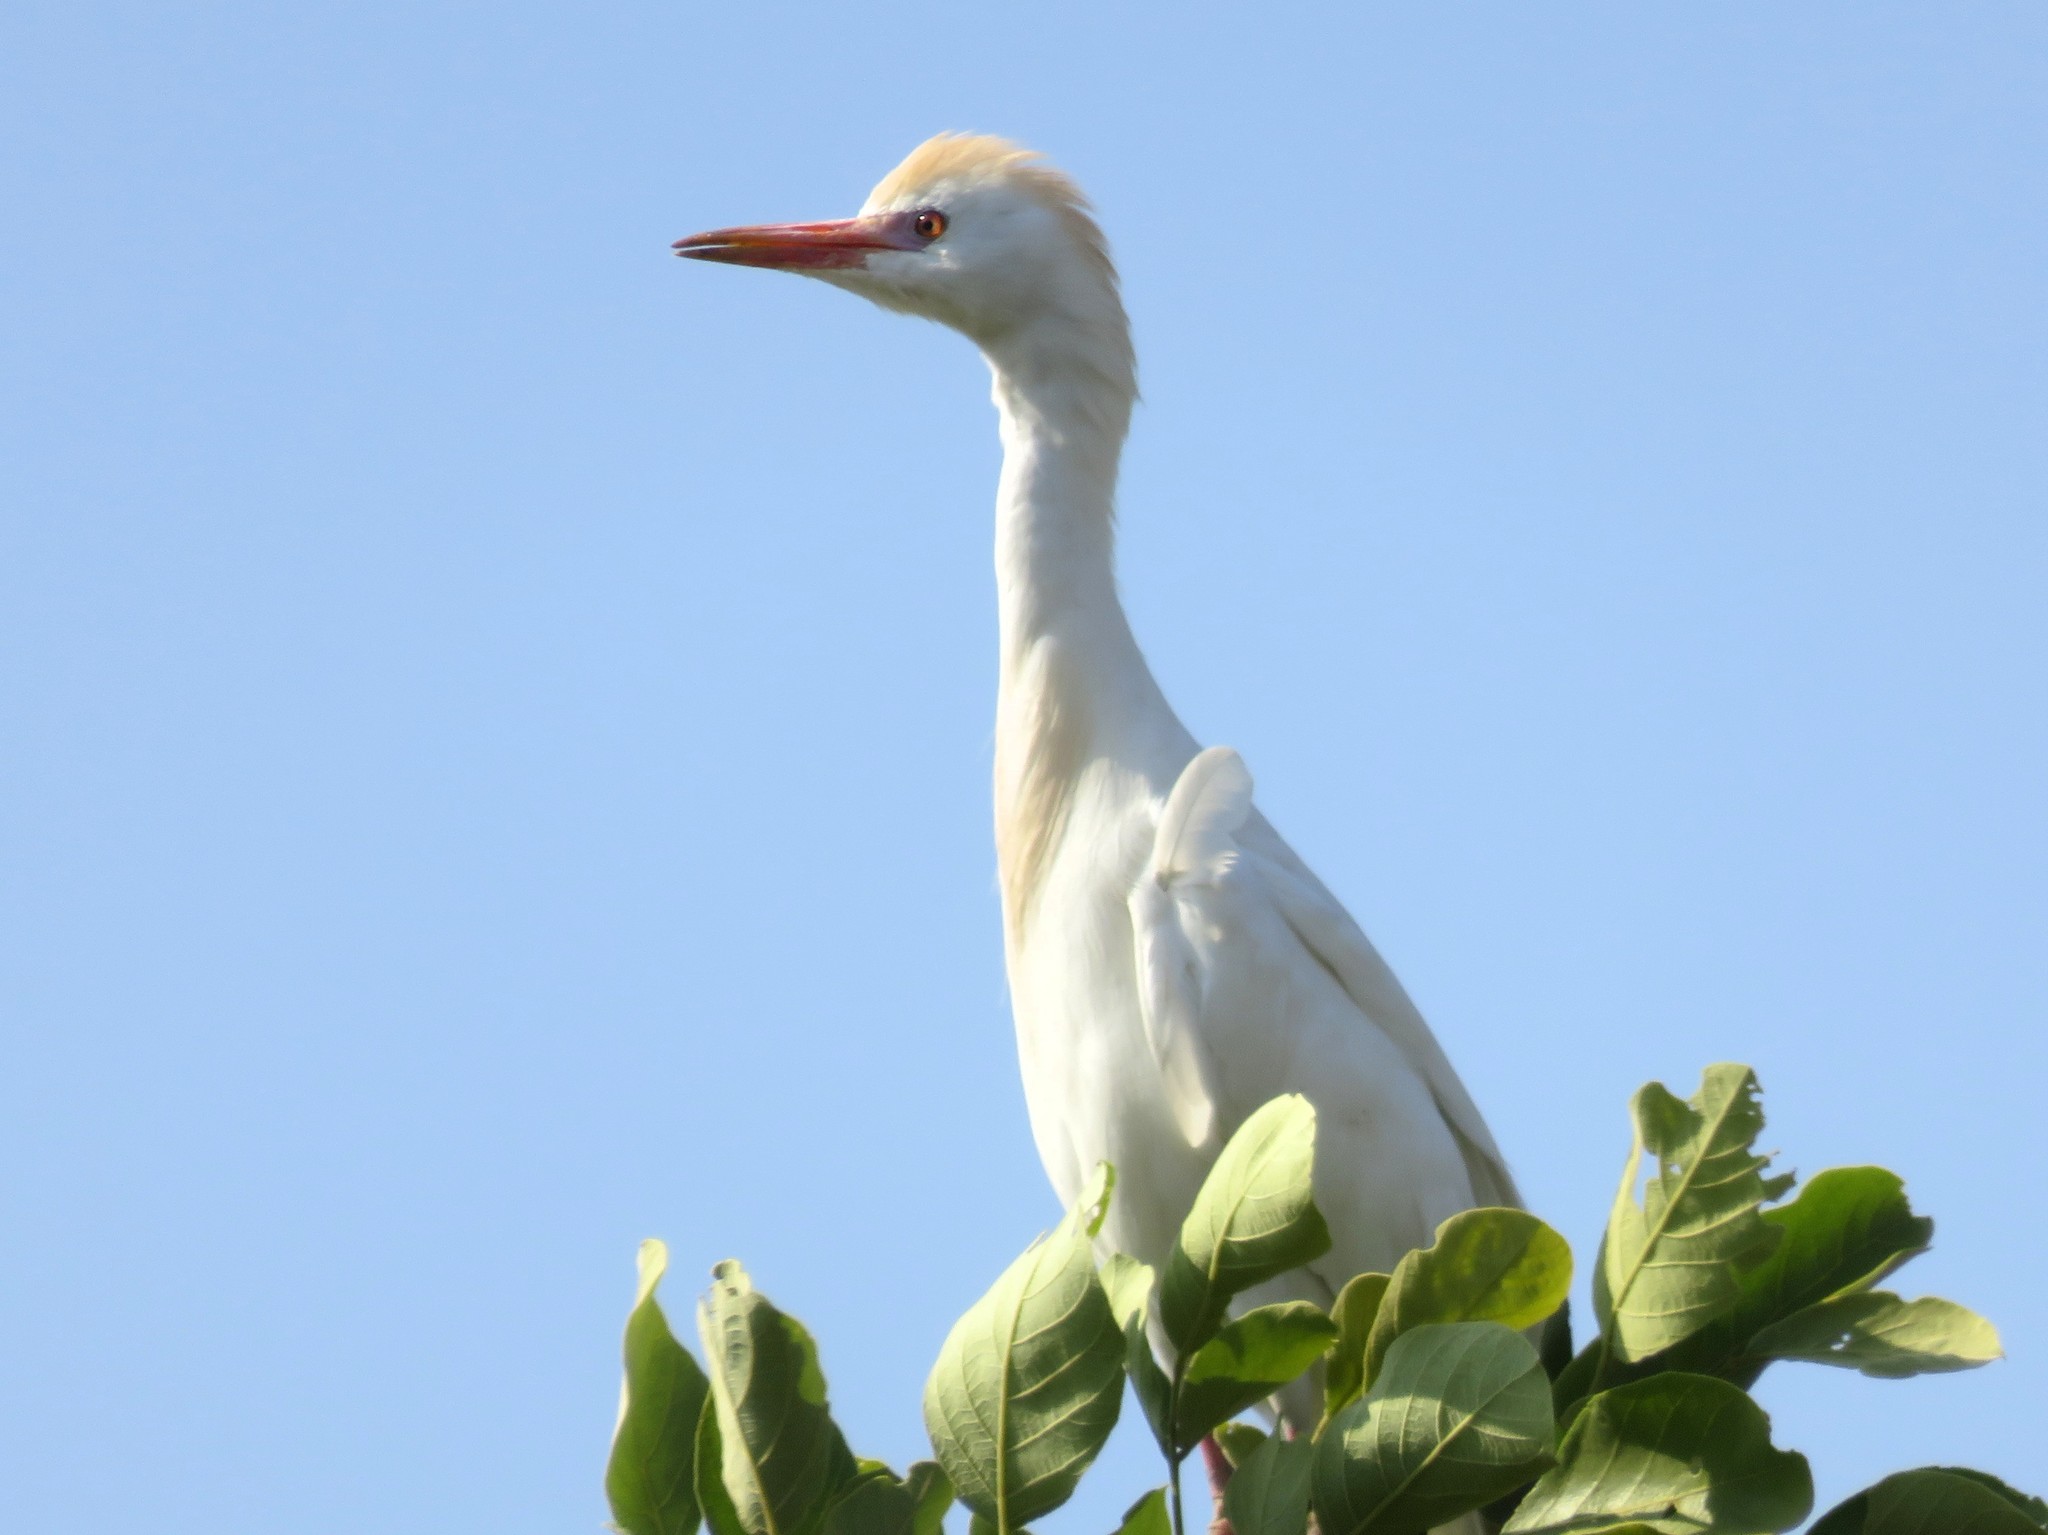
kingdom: Animalia
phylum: Chordata
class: Aves
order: Pelecaniformes
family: Ardeidae
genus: Bubulcus
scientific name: Bubulcus ibis
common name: Cattle egret
